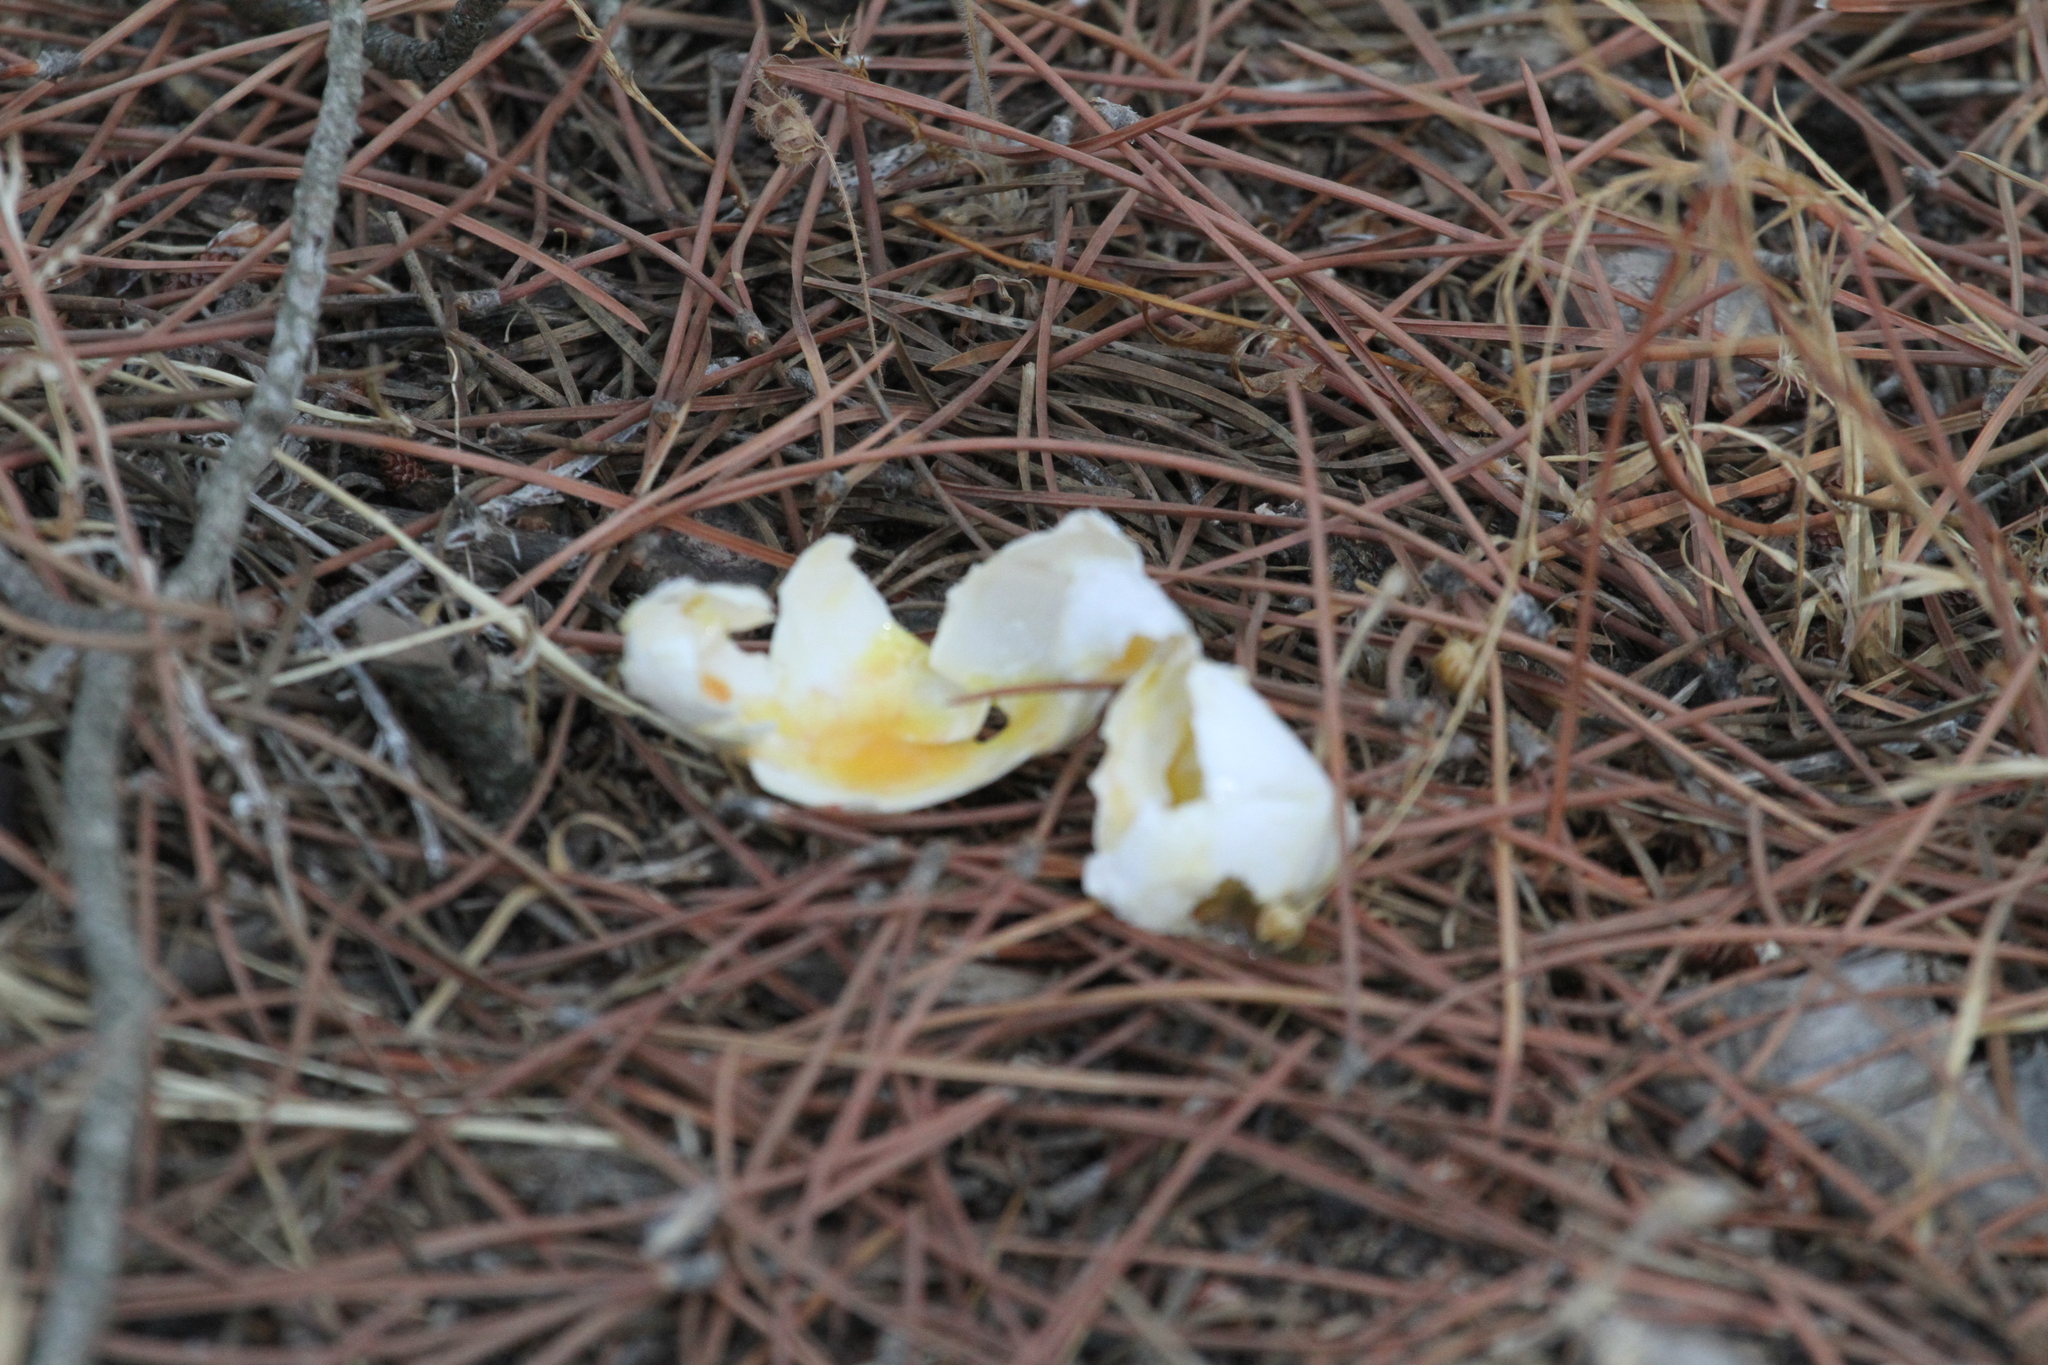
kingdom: Animalia
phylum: Chordata
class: Aves
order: Columbiformes
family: Columbidae
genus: Columba
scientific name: Columba palumbus
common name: Common wood pigeon
